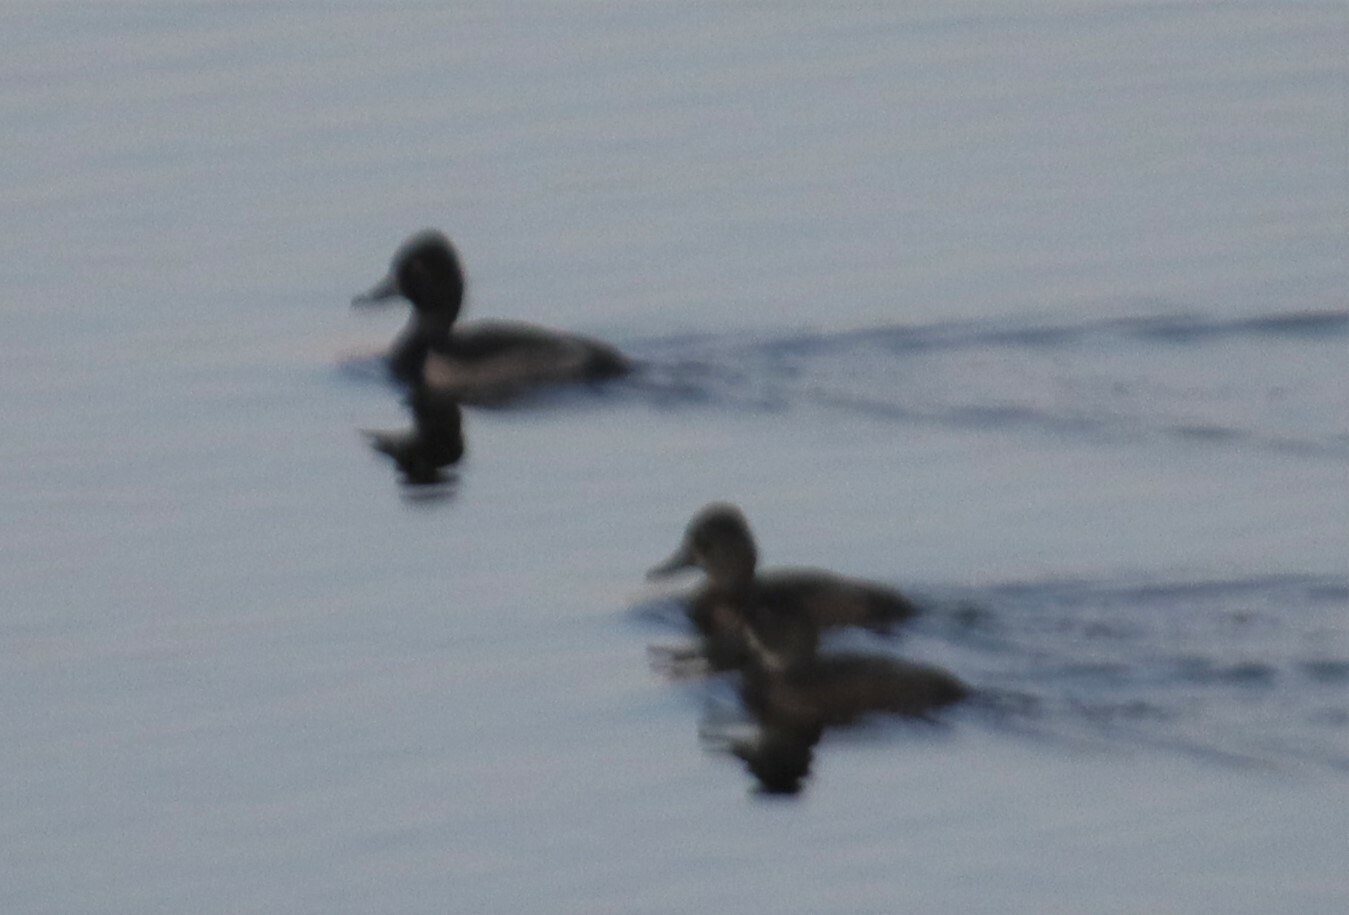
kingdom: Animalia
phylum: Chordata
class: Aves
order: Anseriformes
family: Anatidae
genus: Aythya
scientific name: Aythya collaris
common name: Ring-necked duck
